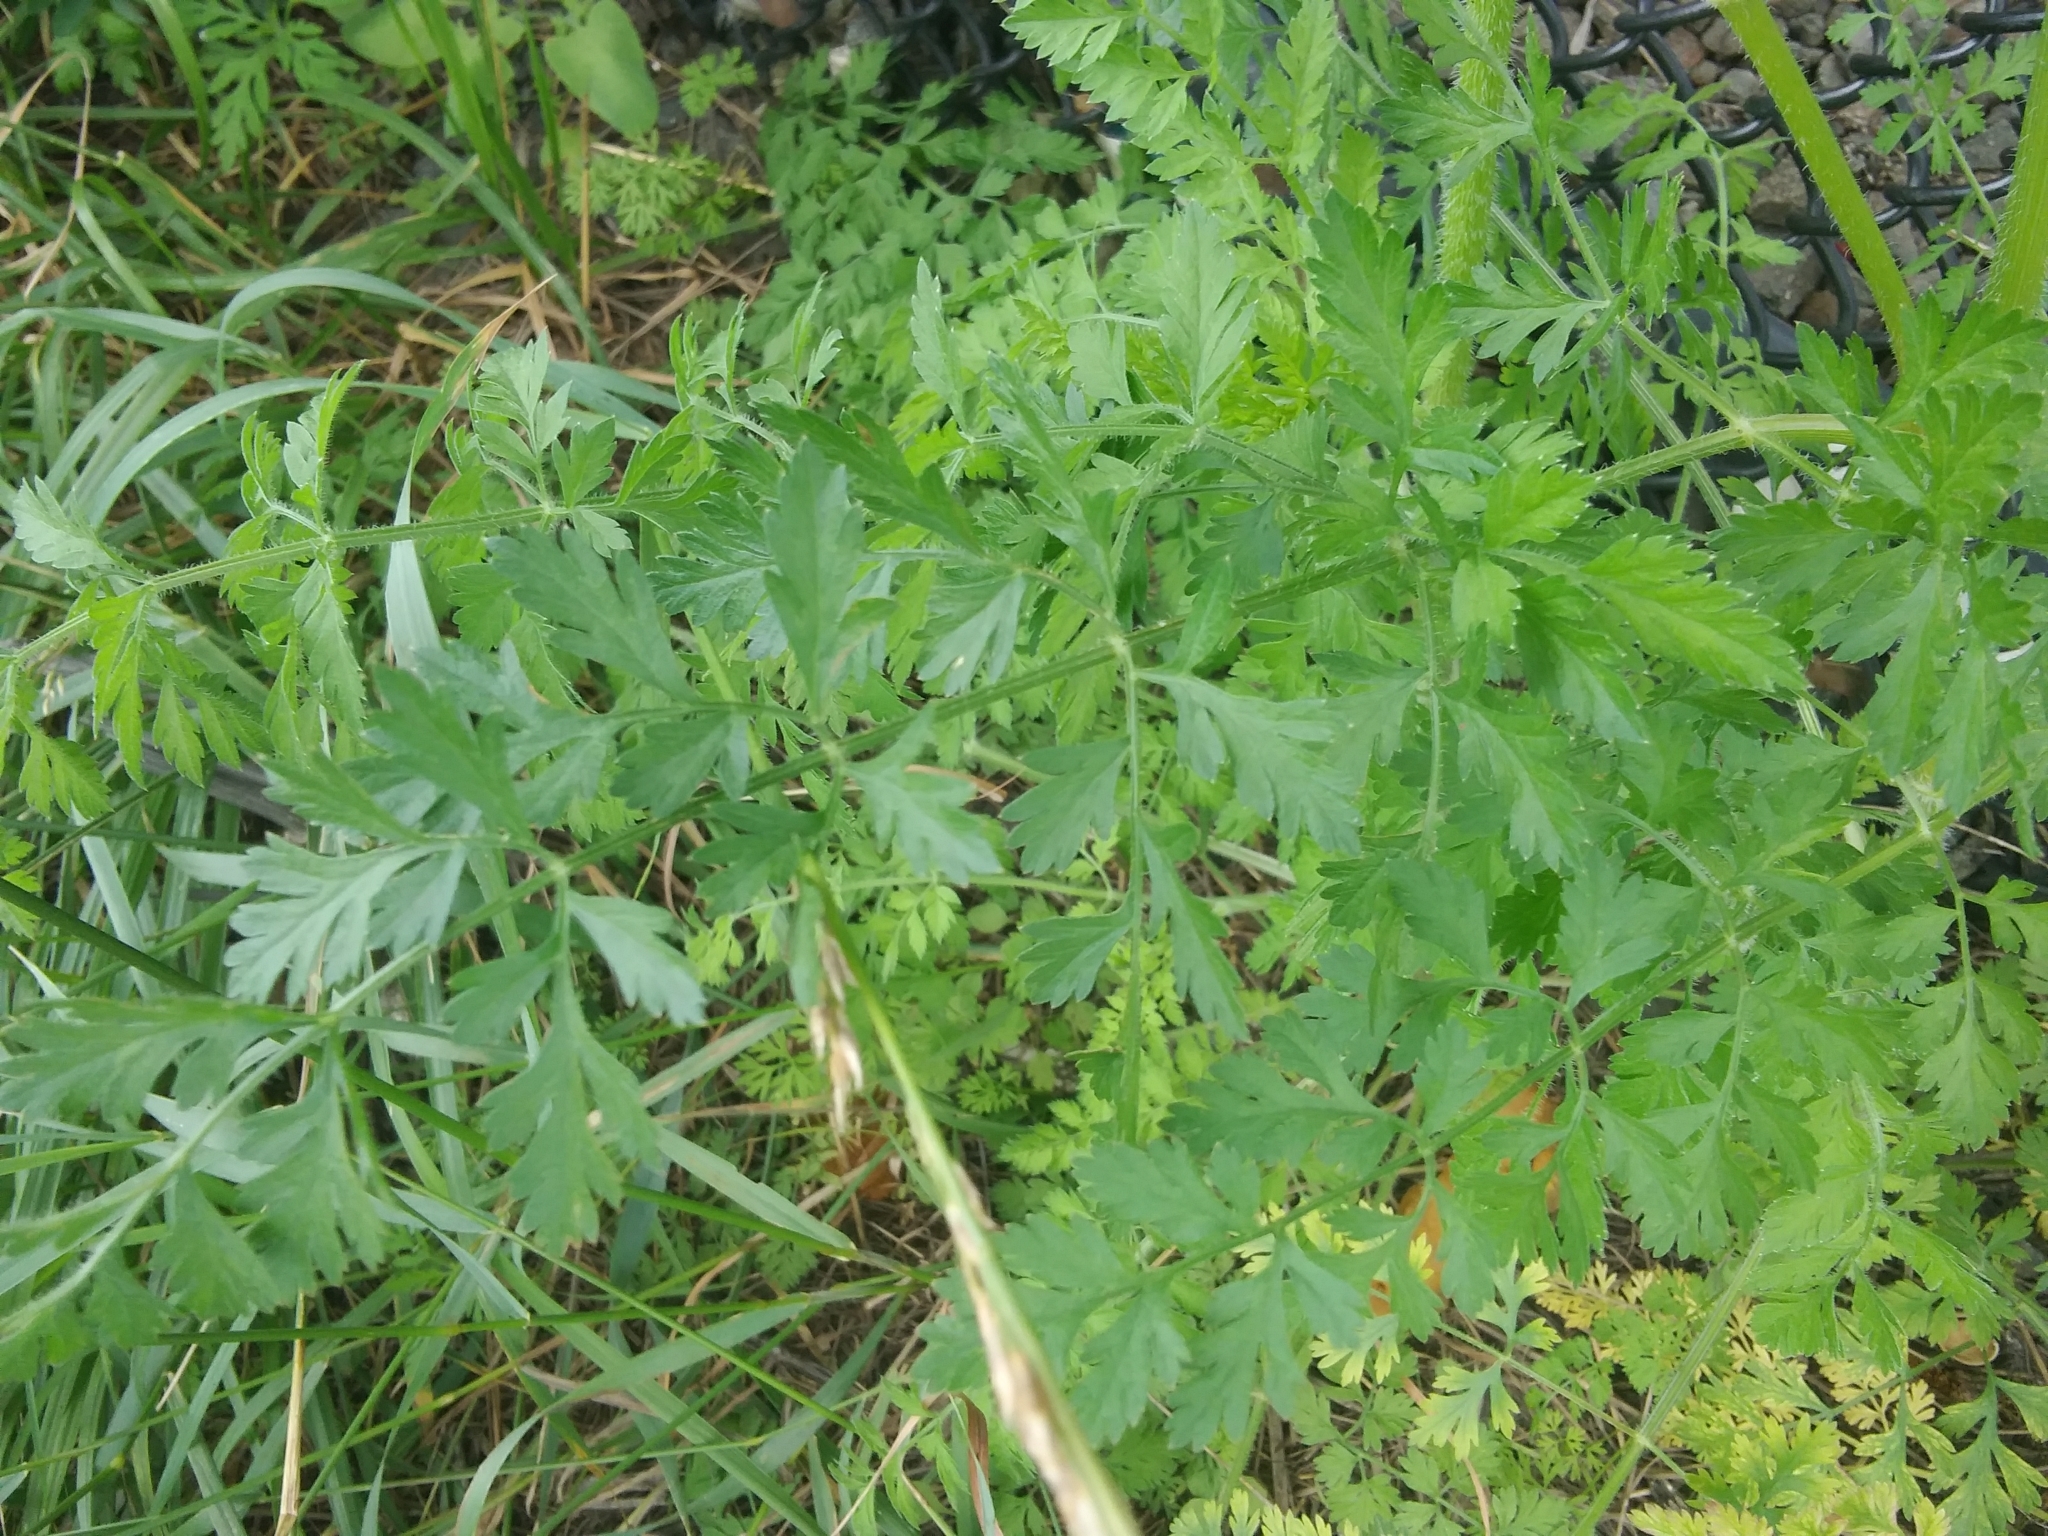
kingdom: Plantae
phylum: Tracheophyta
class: Magnoliopsida
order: Apiales
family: Apiaceae
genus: Daucus
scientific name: Daucus carota
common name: Wild carrot
